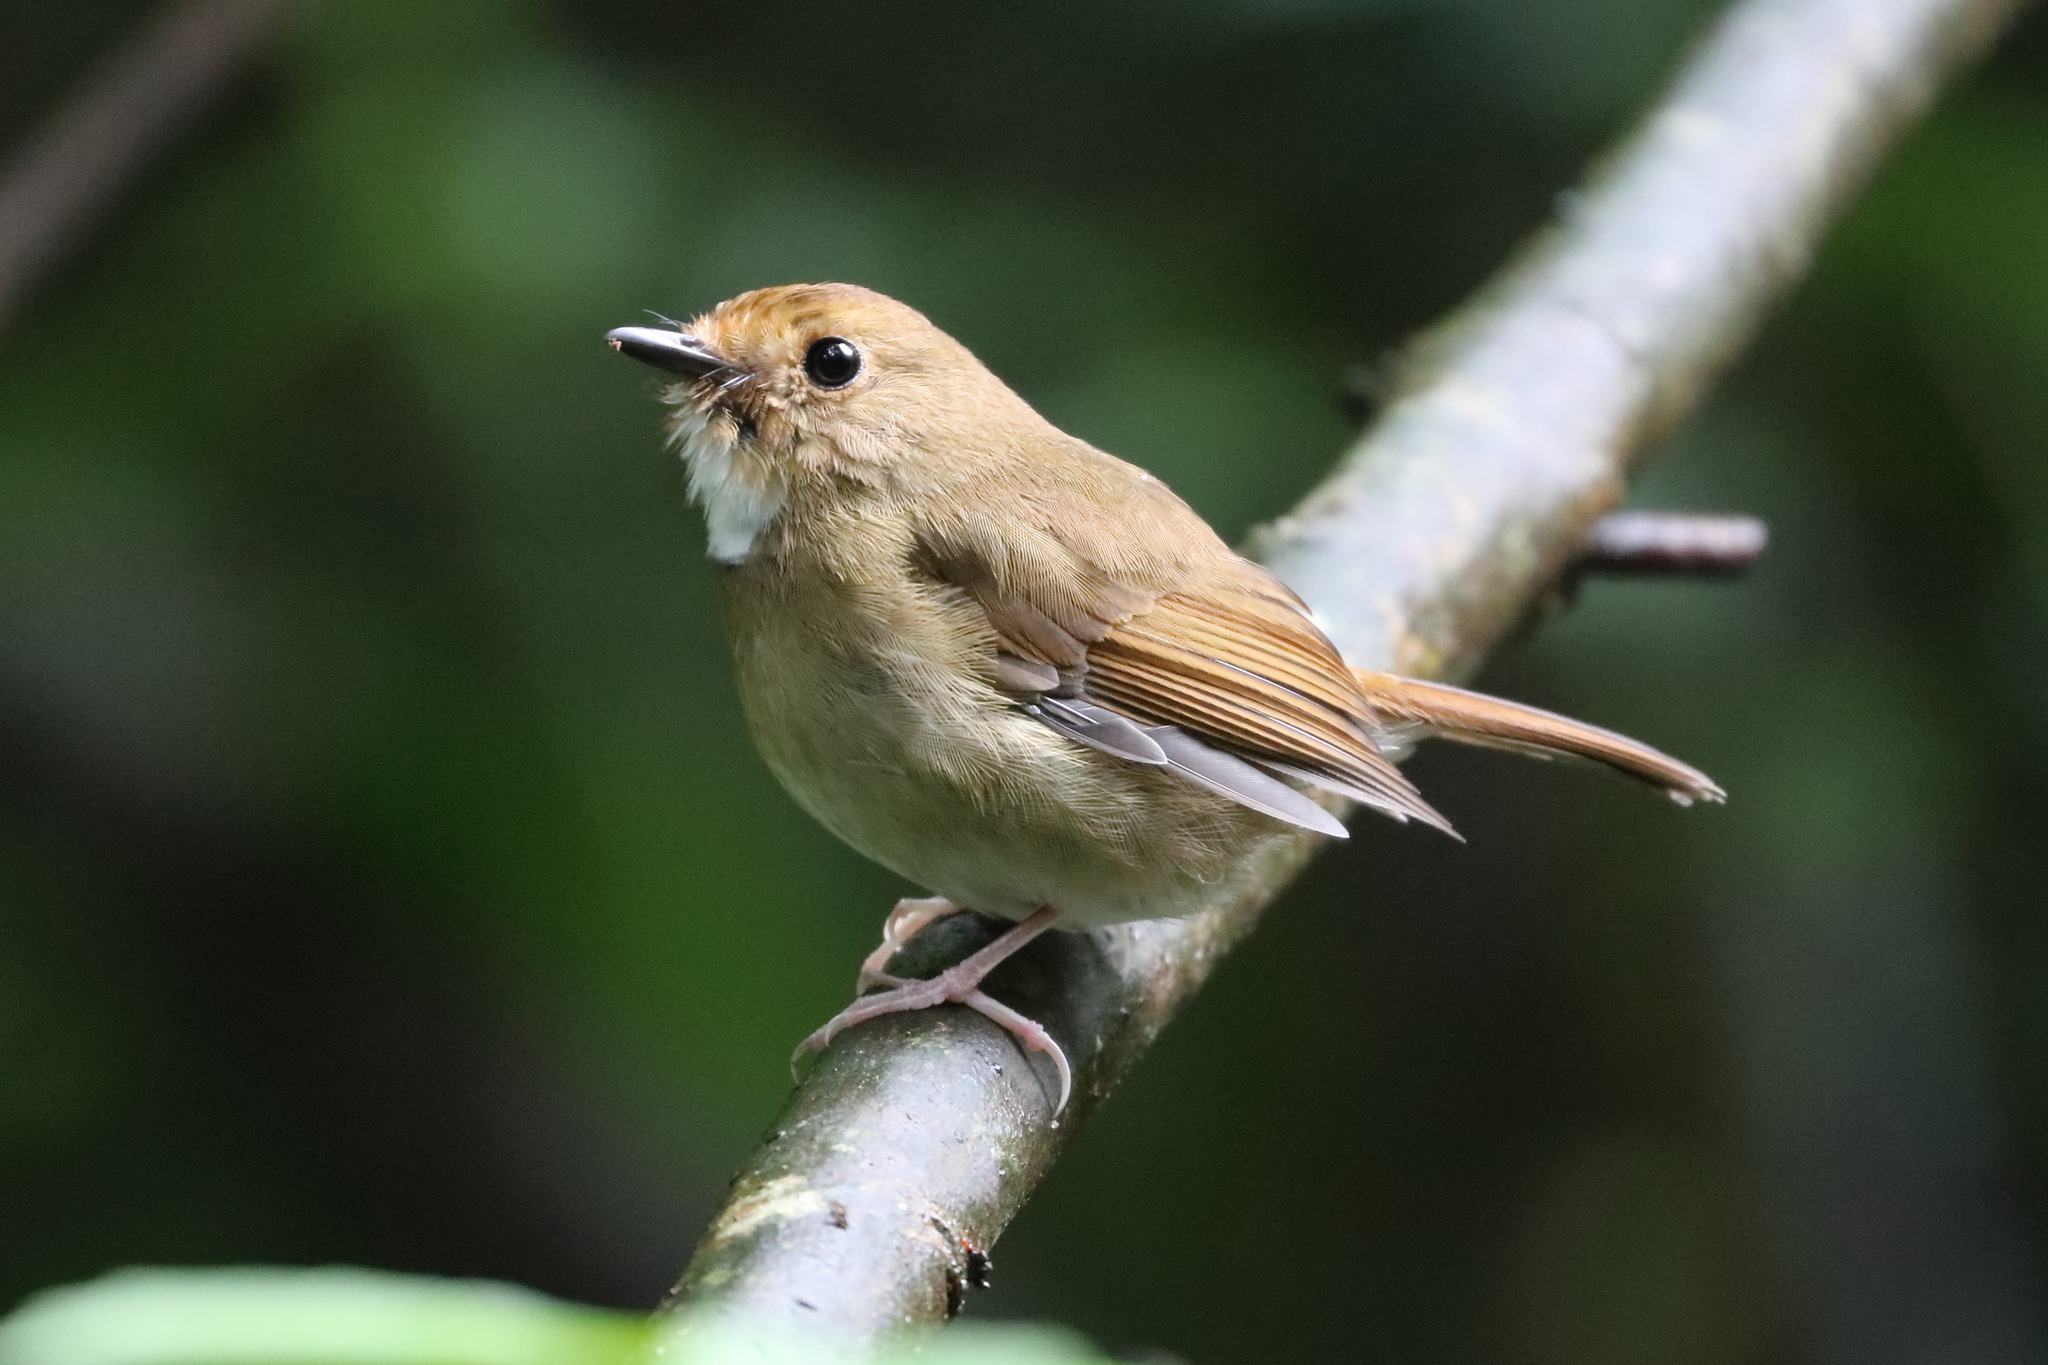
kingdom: Animalia
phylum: Chordata
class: Aves
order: Passeriformes
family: Muscicapidae
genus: Anthipes
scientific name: Anthipes solitaris
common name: Rufous-browed flycatcher
